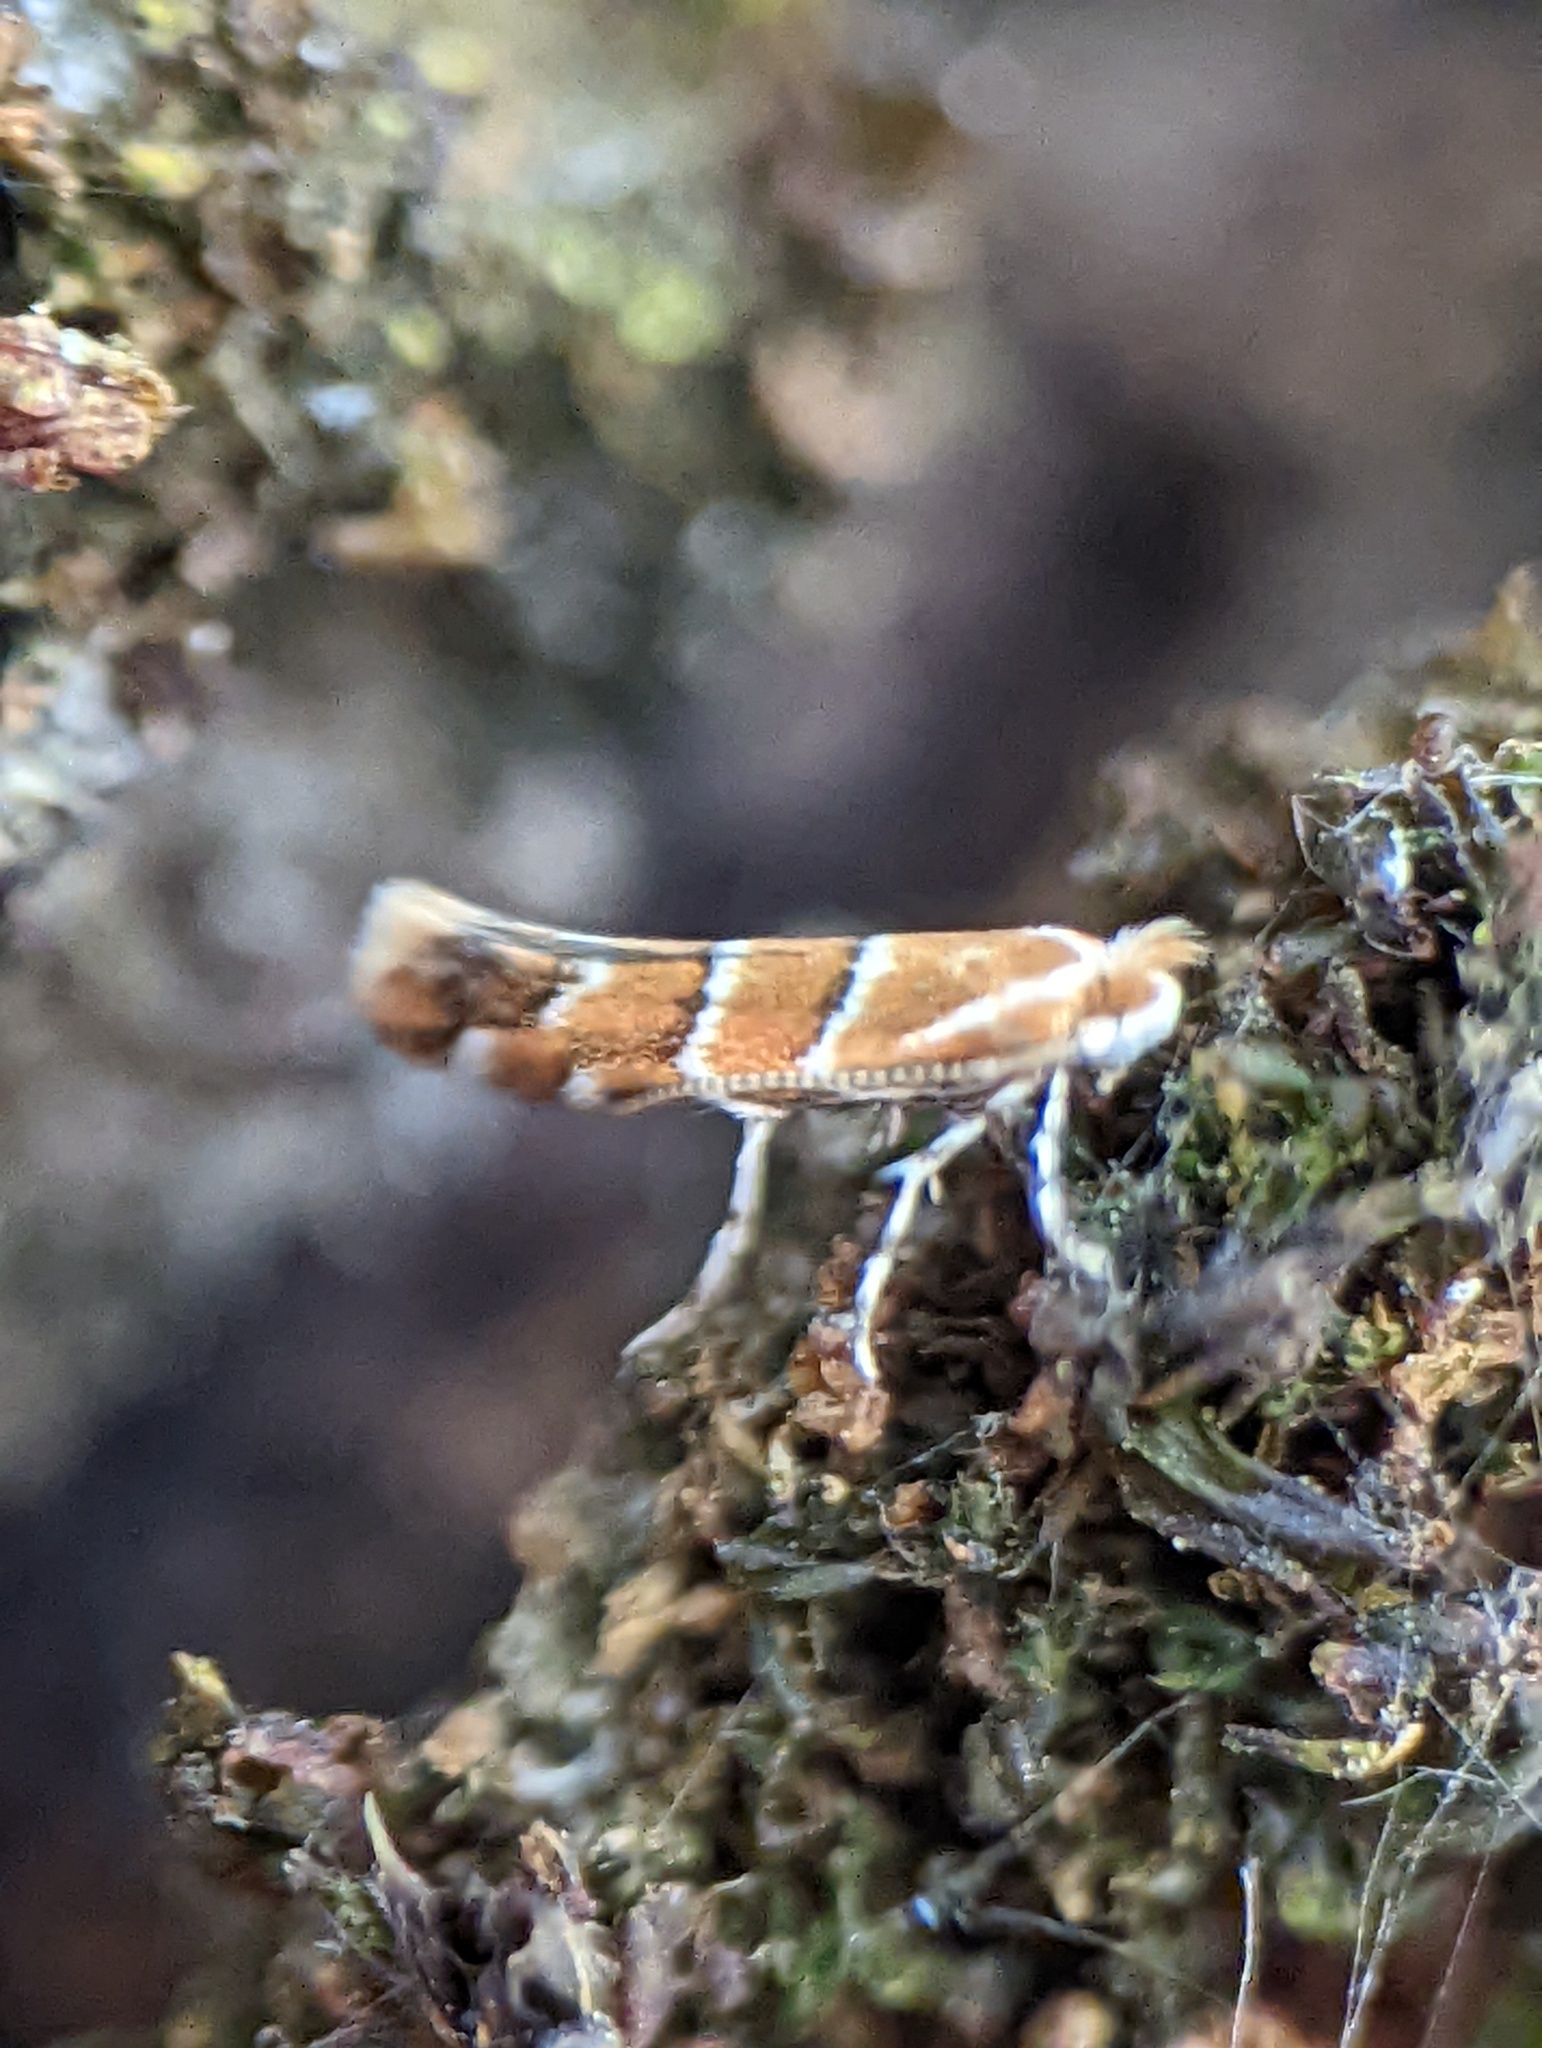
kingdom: Animalia
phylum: Arthropoda
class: Insecta
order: Lepidoptera
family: Gracillariidae
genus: Cameraria
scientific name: Cameraria ohridella
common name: Horse-chestnut leaf-miner
